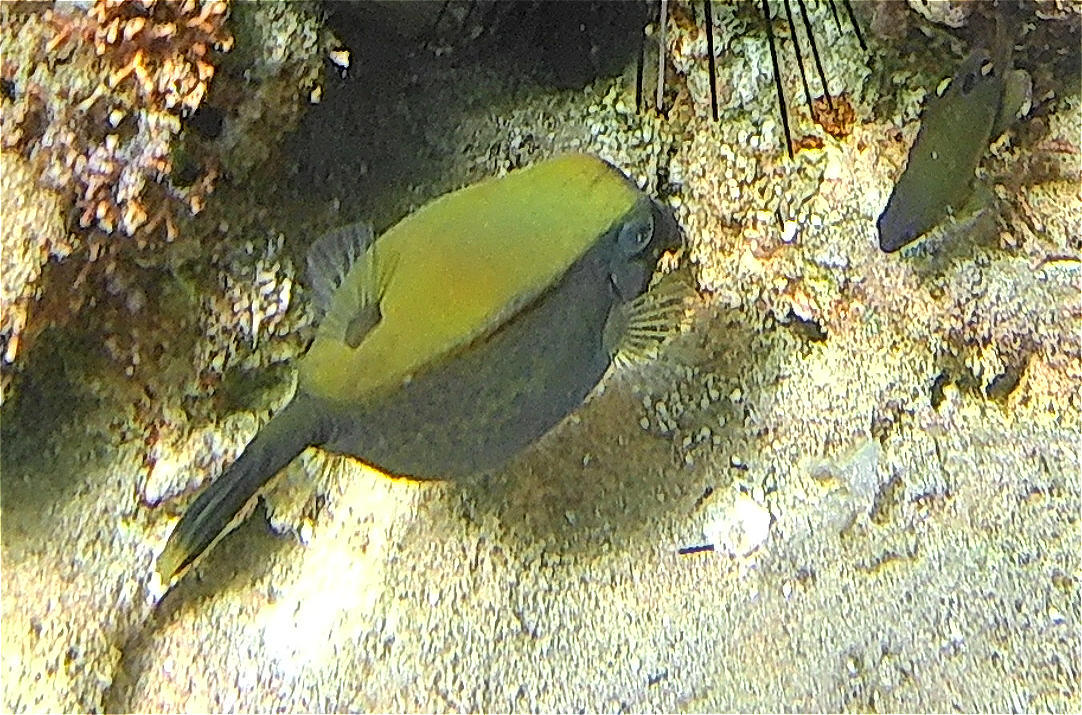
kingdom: Animalia
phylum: Chordata
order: Tetraodontiformes
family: Ostraciidae
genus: Ostracion
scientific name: Ostracion cyanurus
